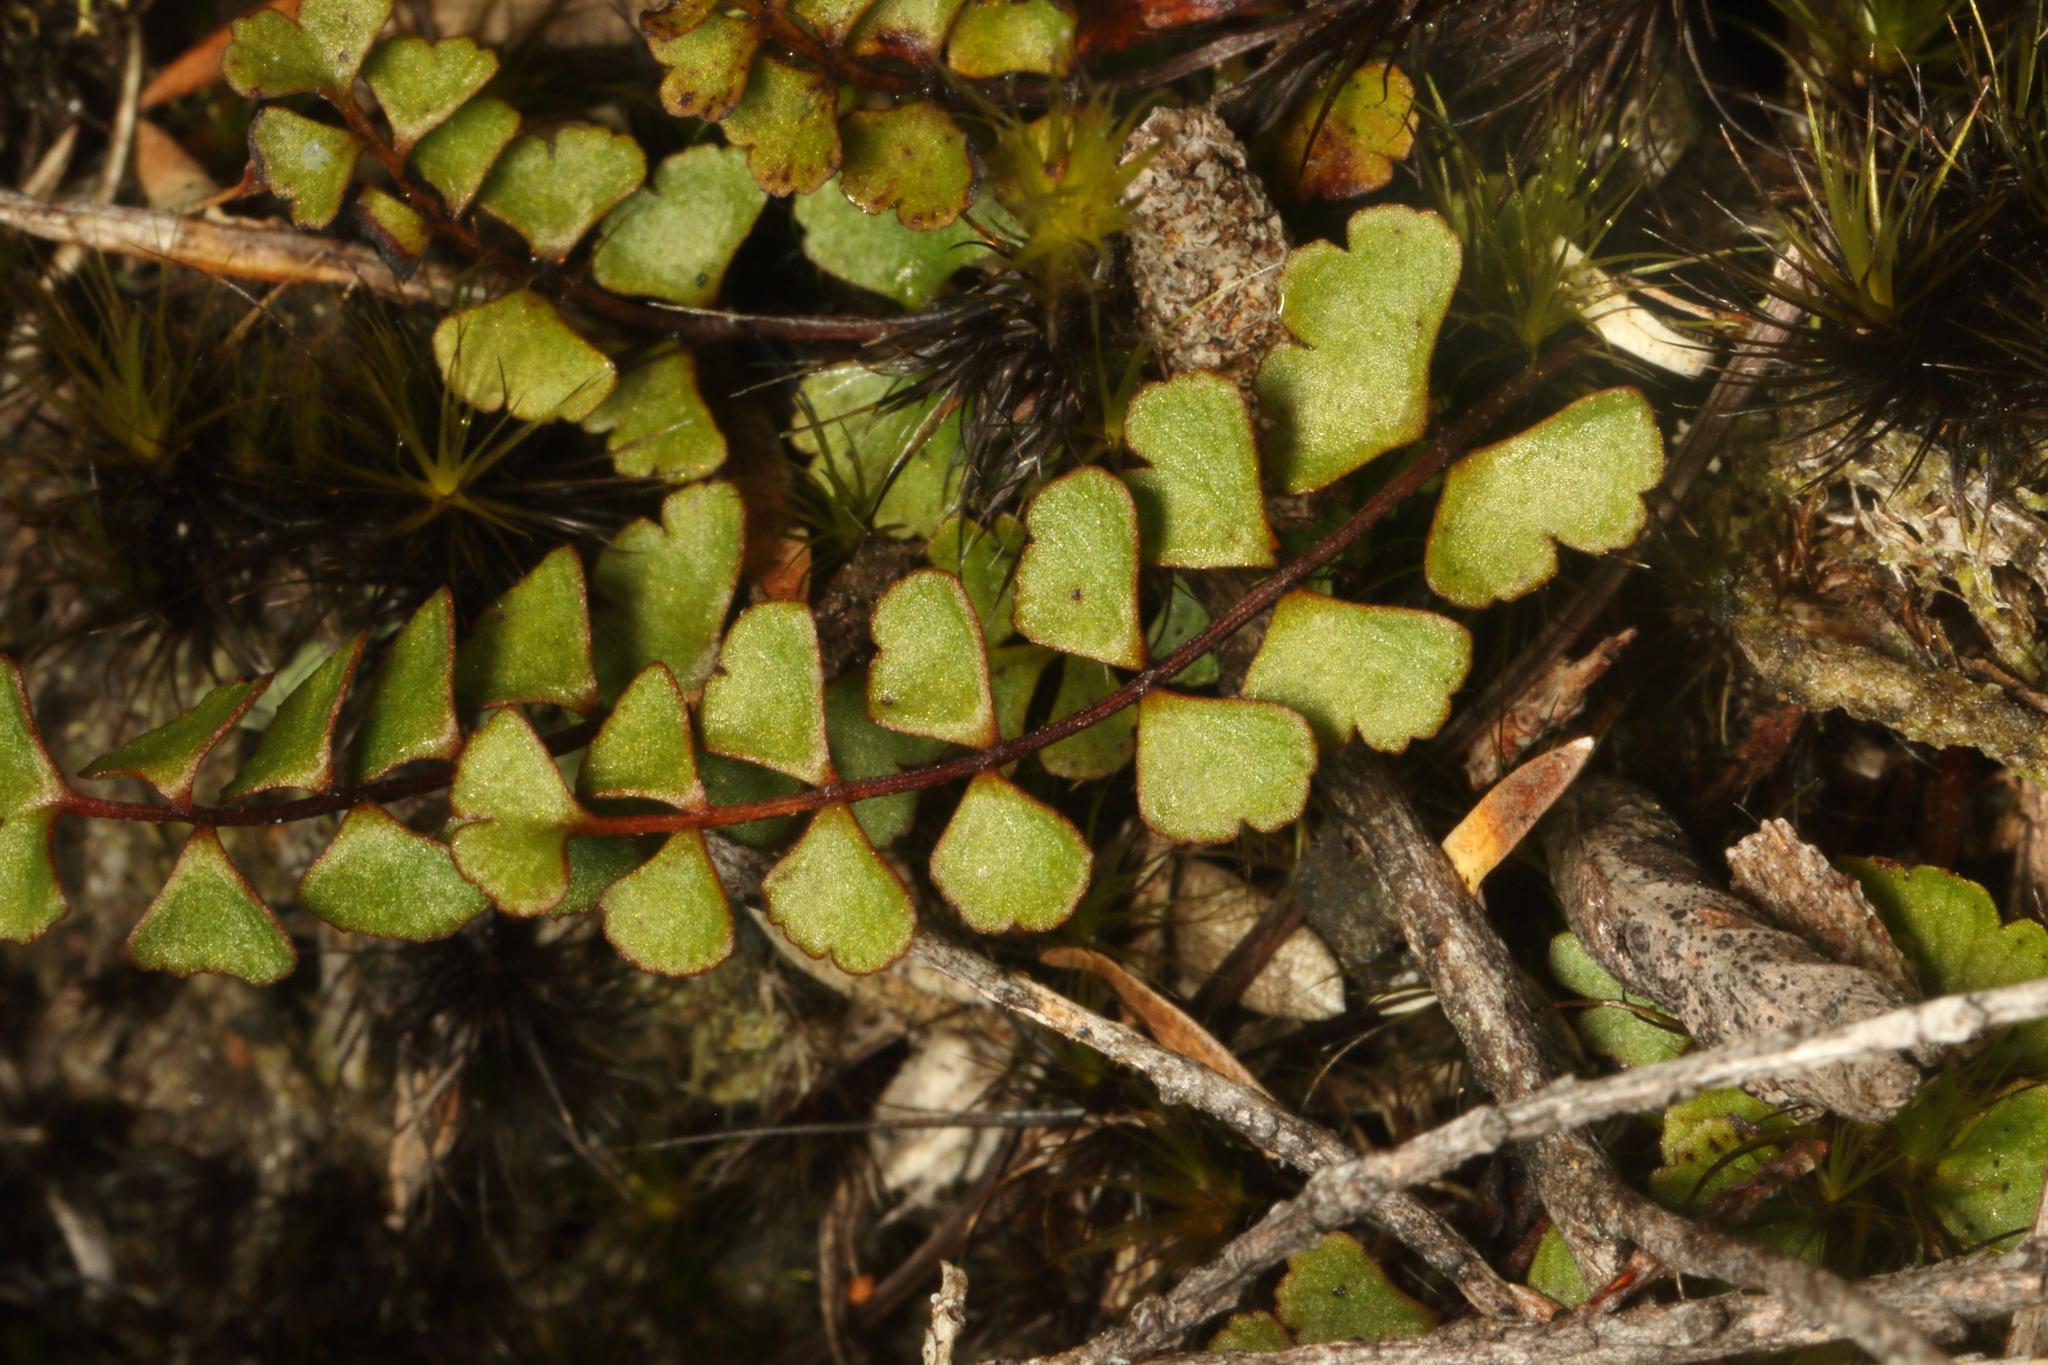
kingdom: Plantae
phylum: Tracheophyta
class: Polypodiopsida
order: Polypodiales
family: Lindsaeaceae
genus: Lindsaea
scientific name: Lindsaea linearis
